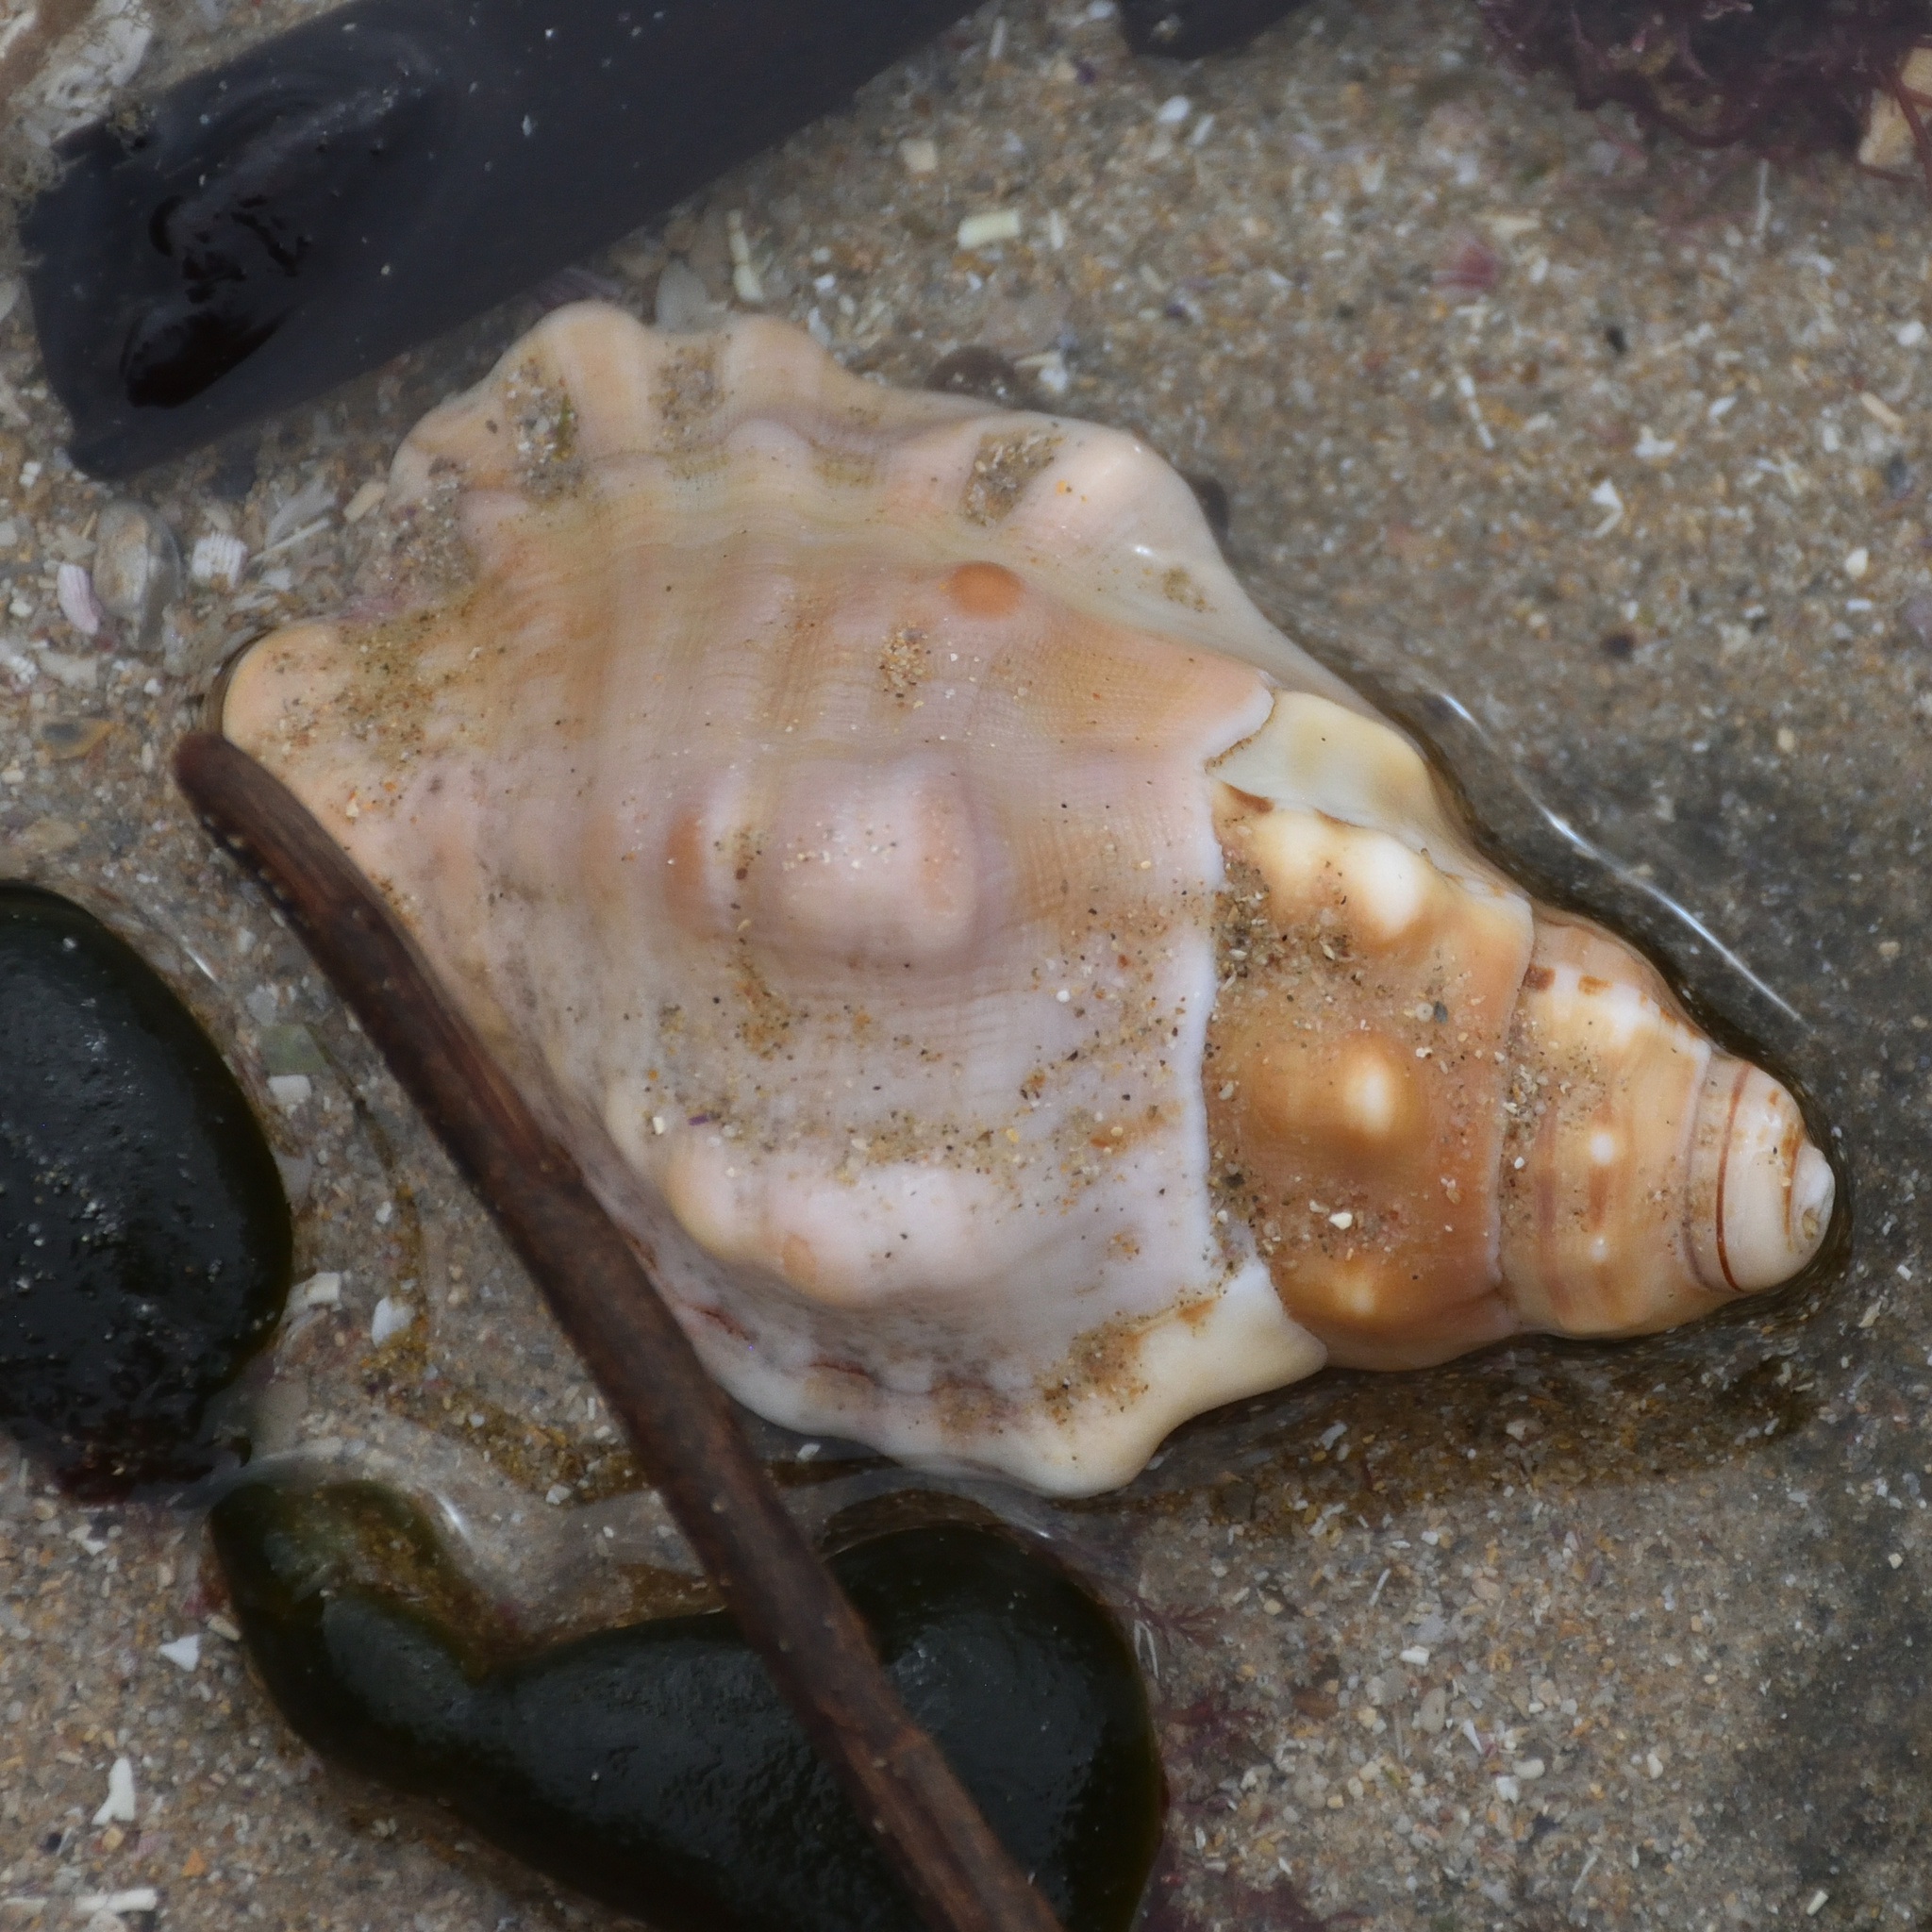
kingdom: Animalia
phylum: Mollusca
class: Gastropoda
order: Littorinimorpha
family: Cymatiidae
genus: Cabestana
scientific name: Cabestana africana
